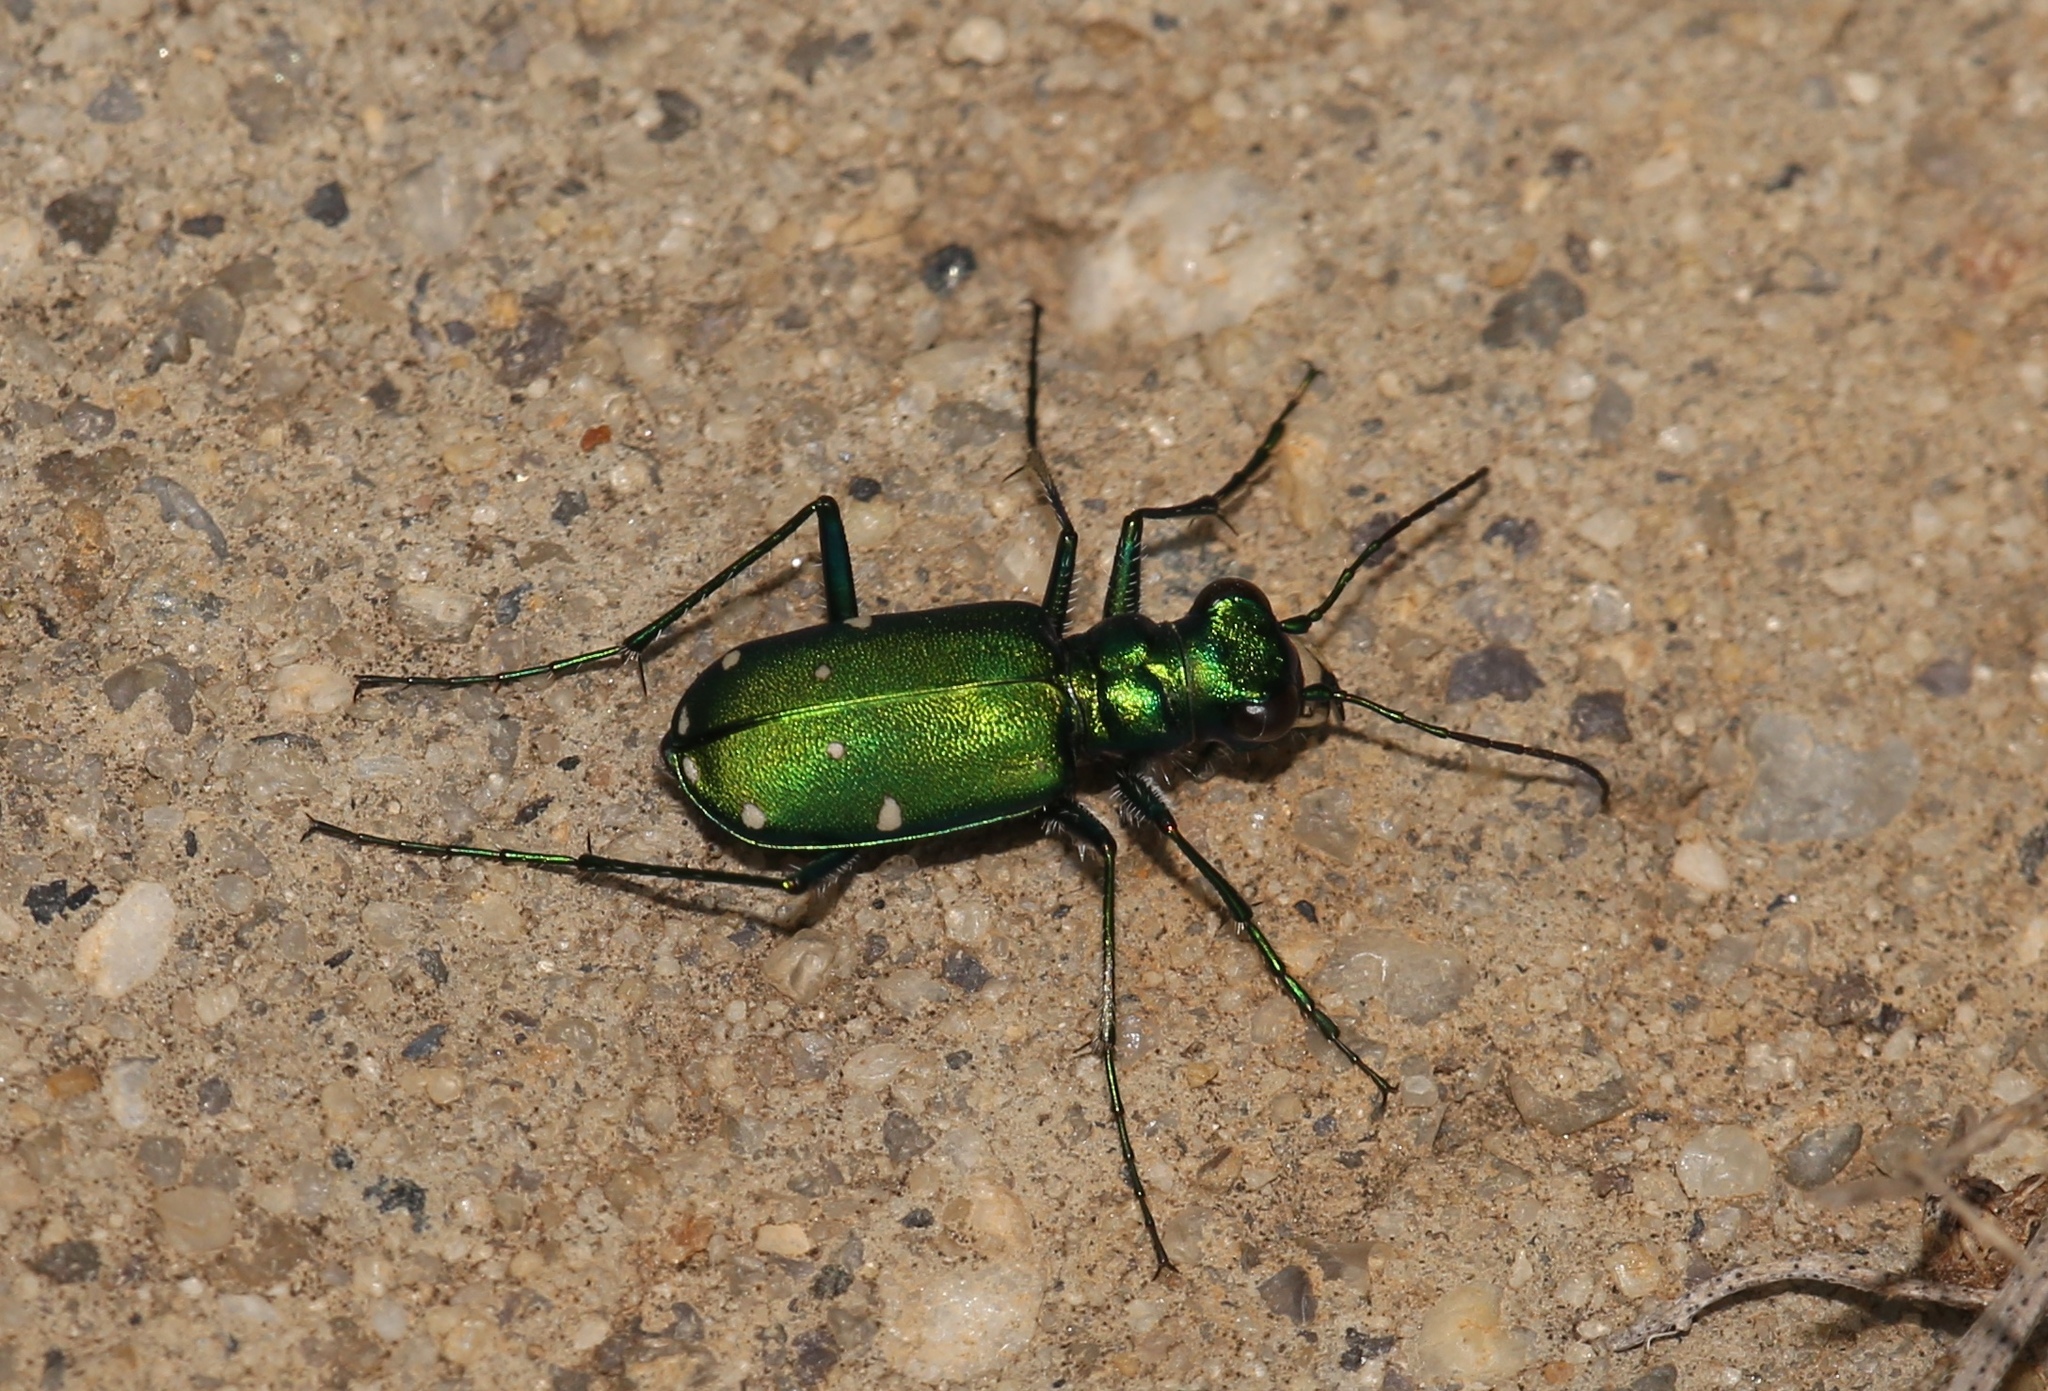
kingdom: Animalia
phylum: Arthropoda
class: Insecta
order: Coleoptera
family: Carabidae
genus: Cicindela
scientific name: Cicindela sexguttata
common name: Six-spotted tiger beetle
